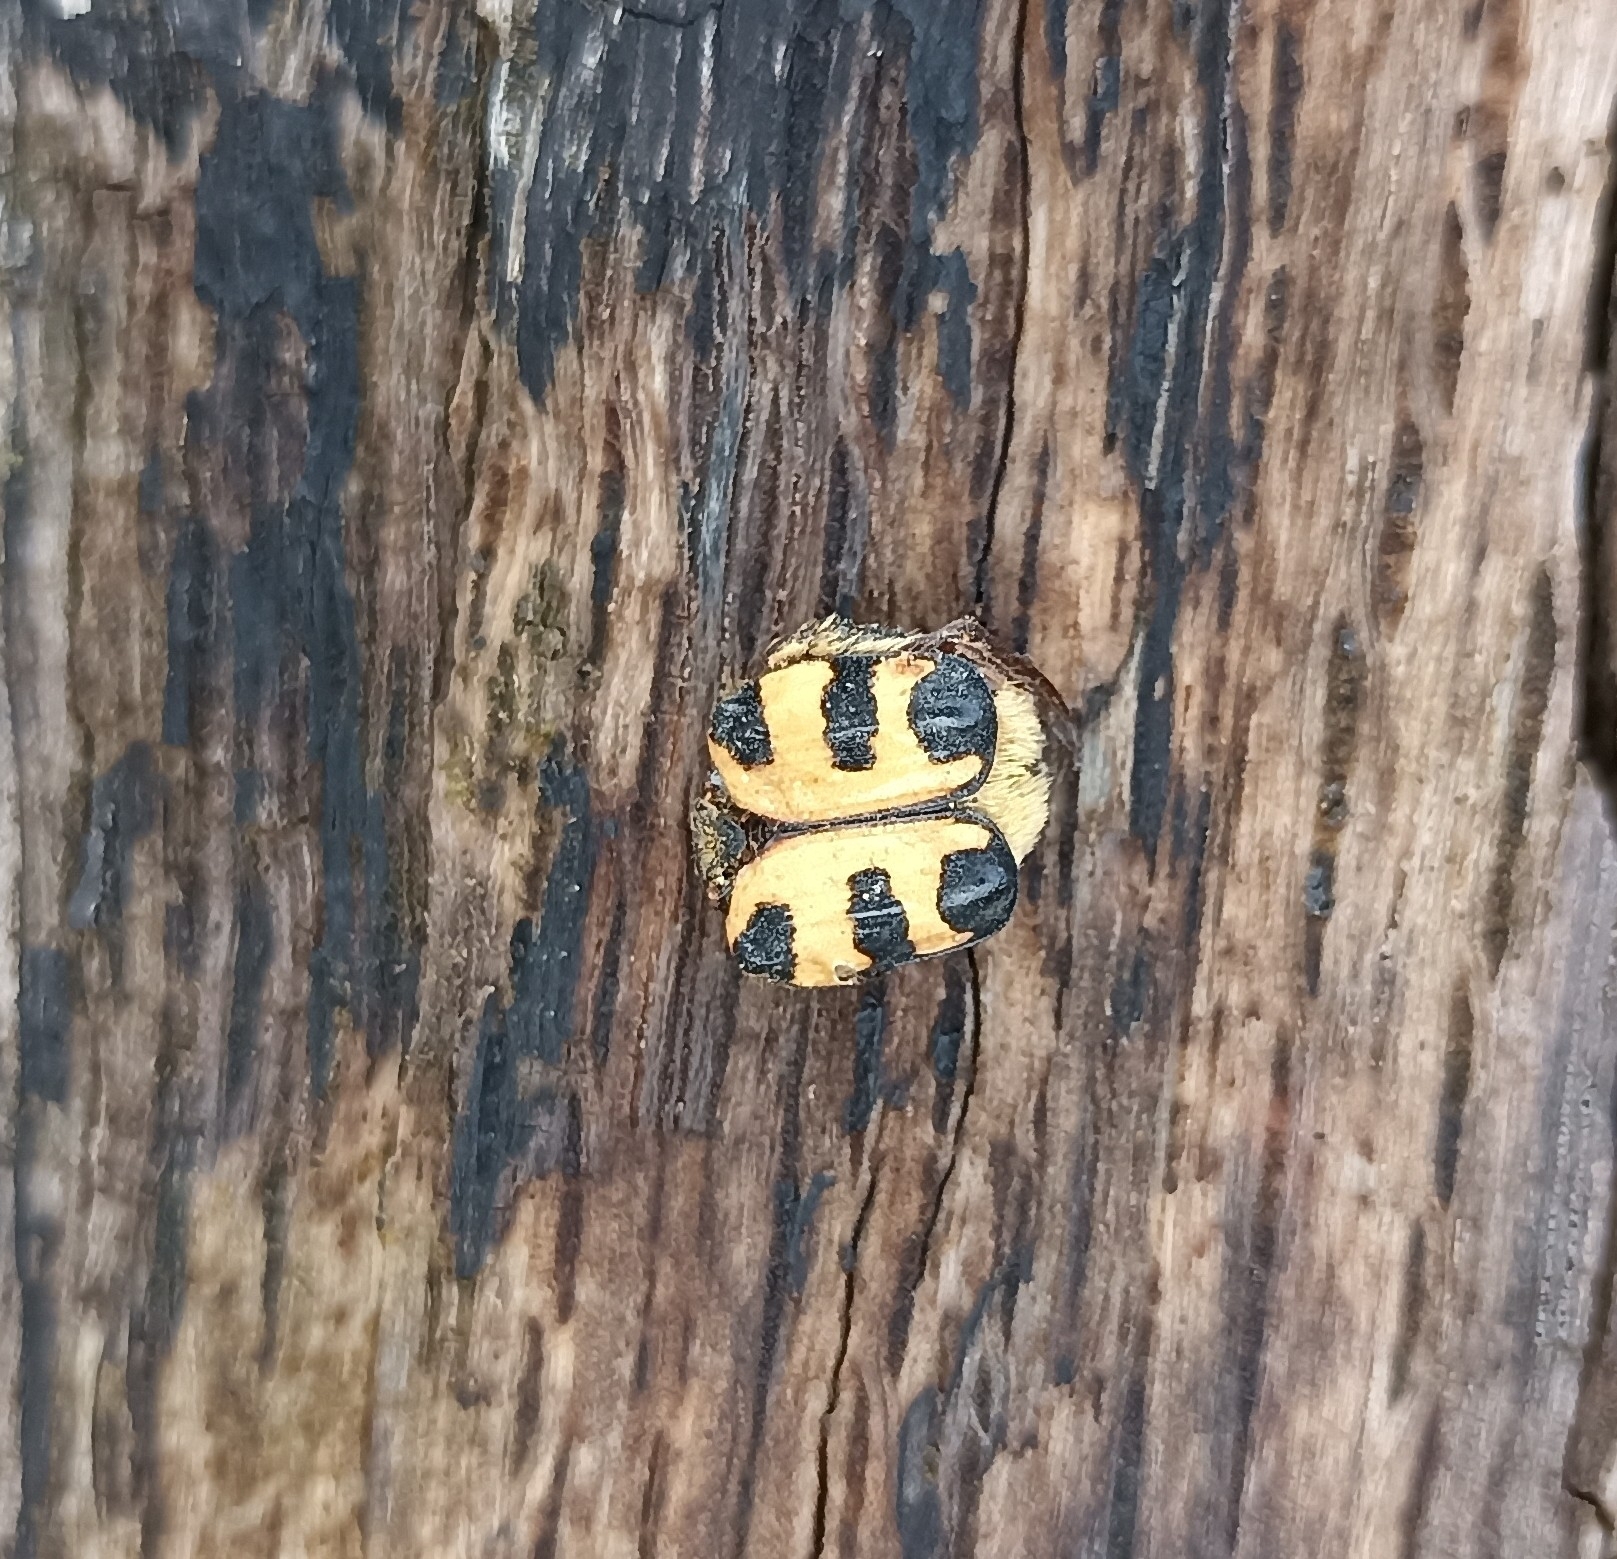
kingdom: Animalia
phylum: Arthropoda
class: Insecta
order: Coleoptera
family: Scarabaeidae
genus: Trichius
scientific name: Trichius gallicus
